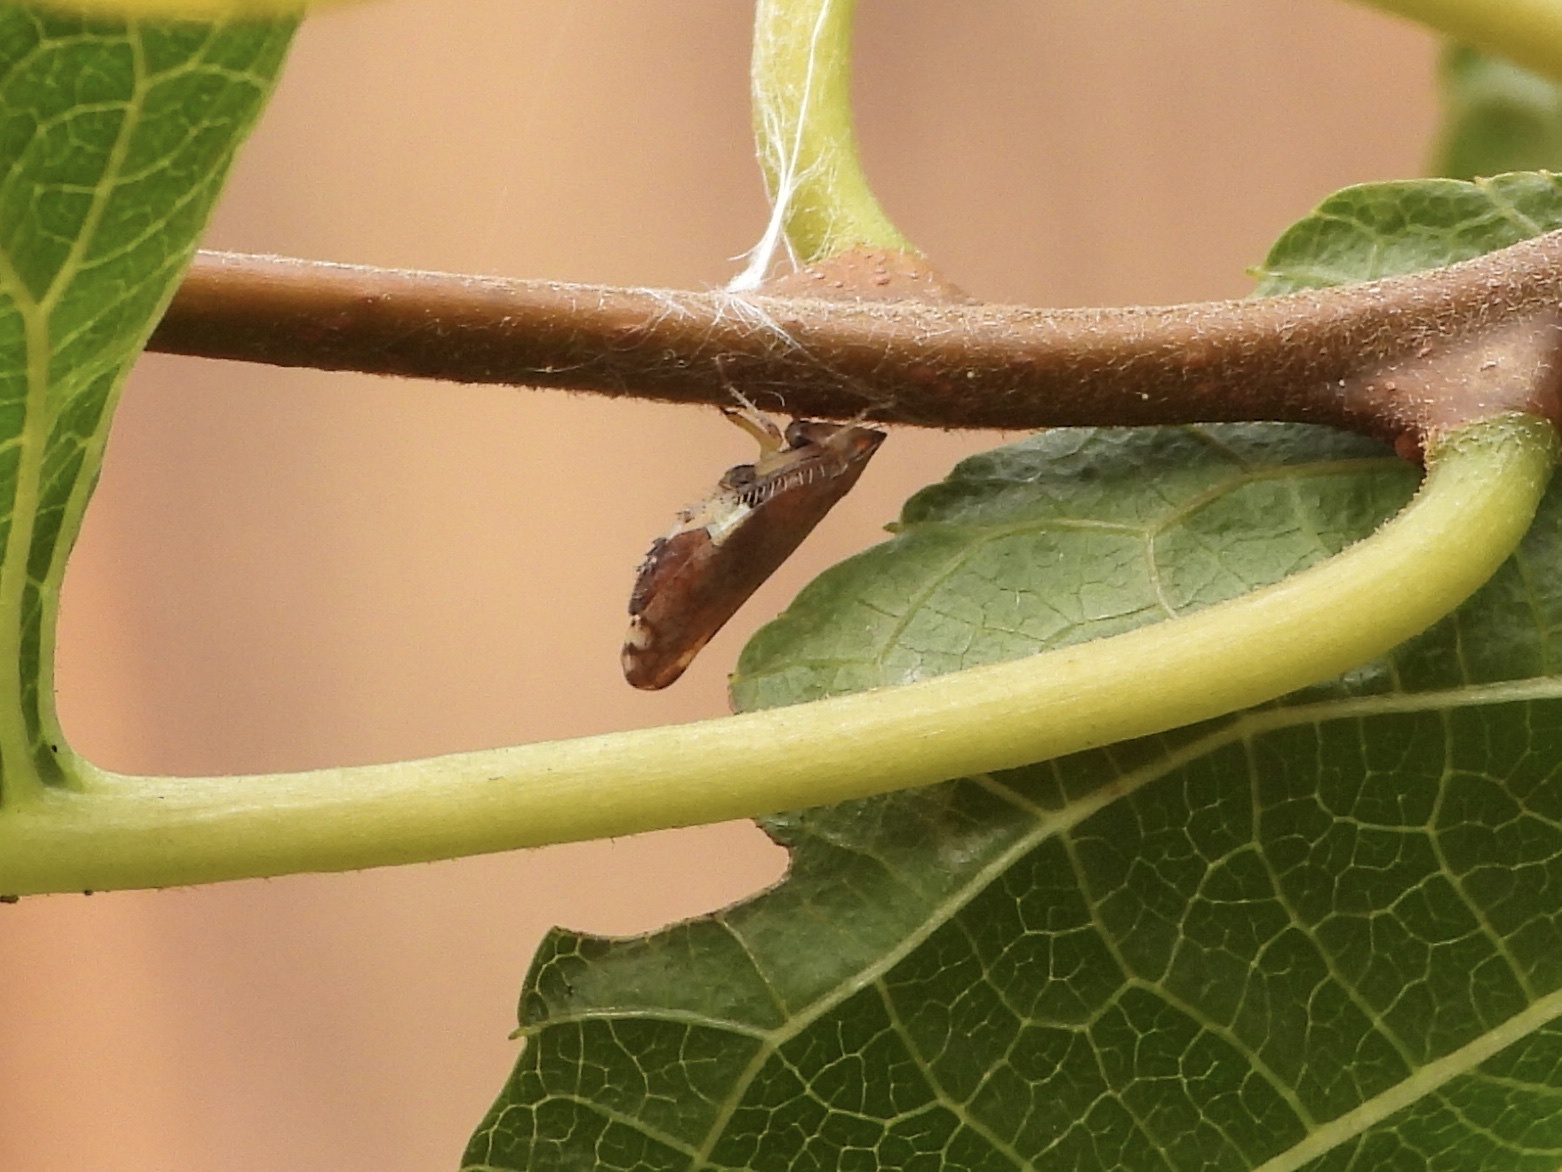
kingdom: Animalia
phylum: Arthropoda
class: Insecta
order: Hemiptera
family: Cicadellidae
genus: Fieberiella
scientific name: Fieberiella florii
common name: Flor’s leafhopper
